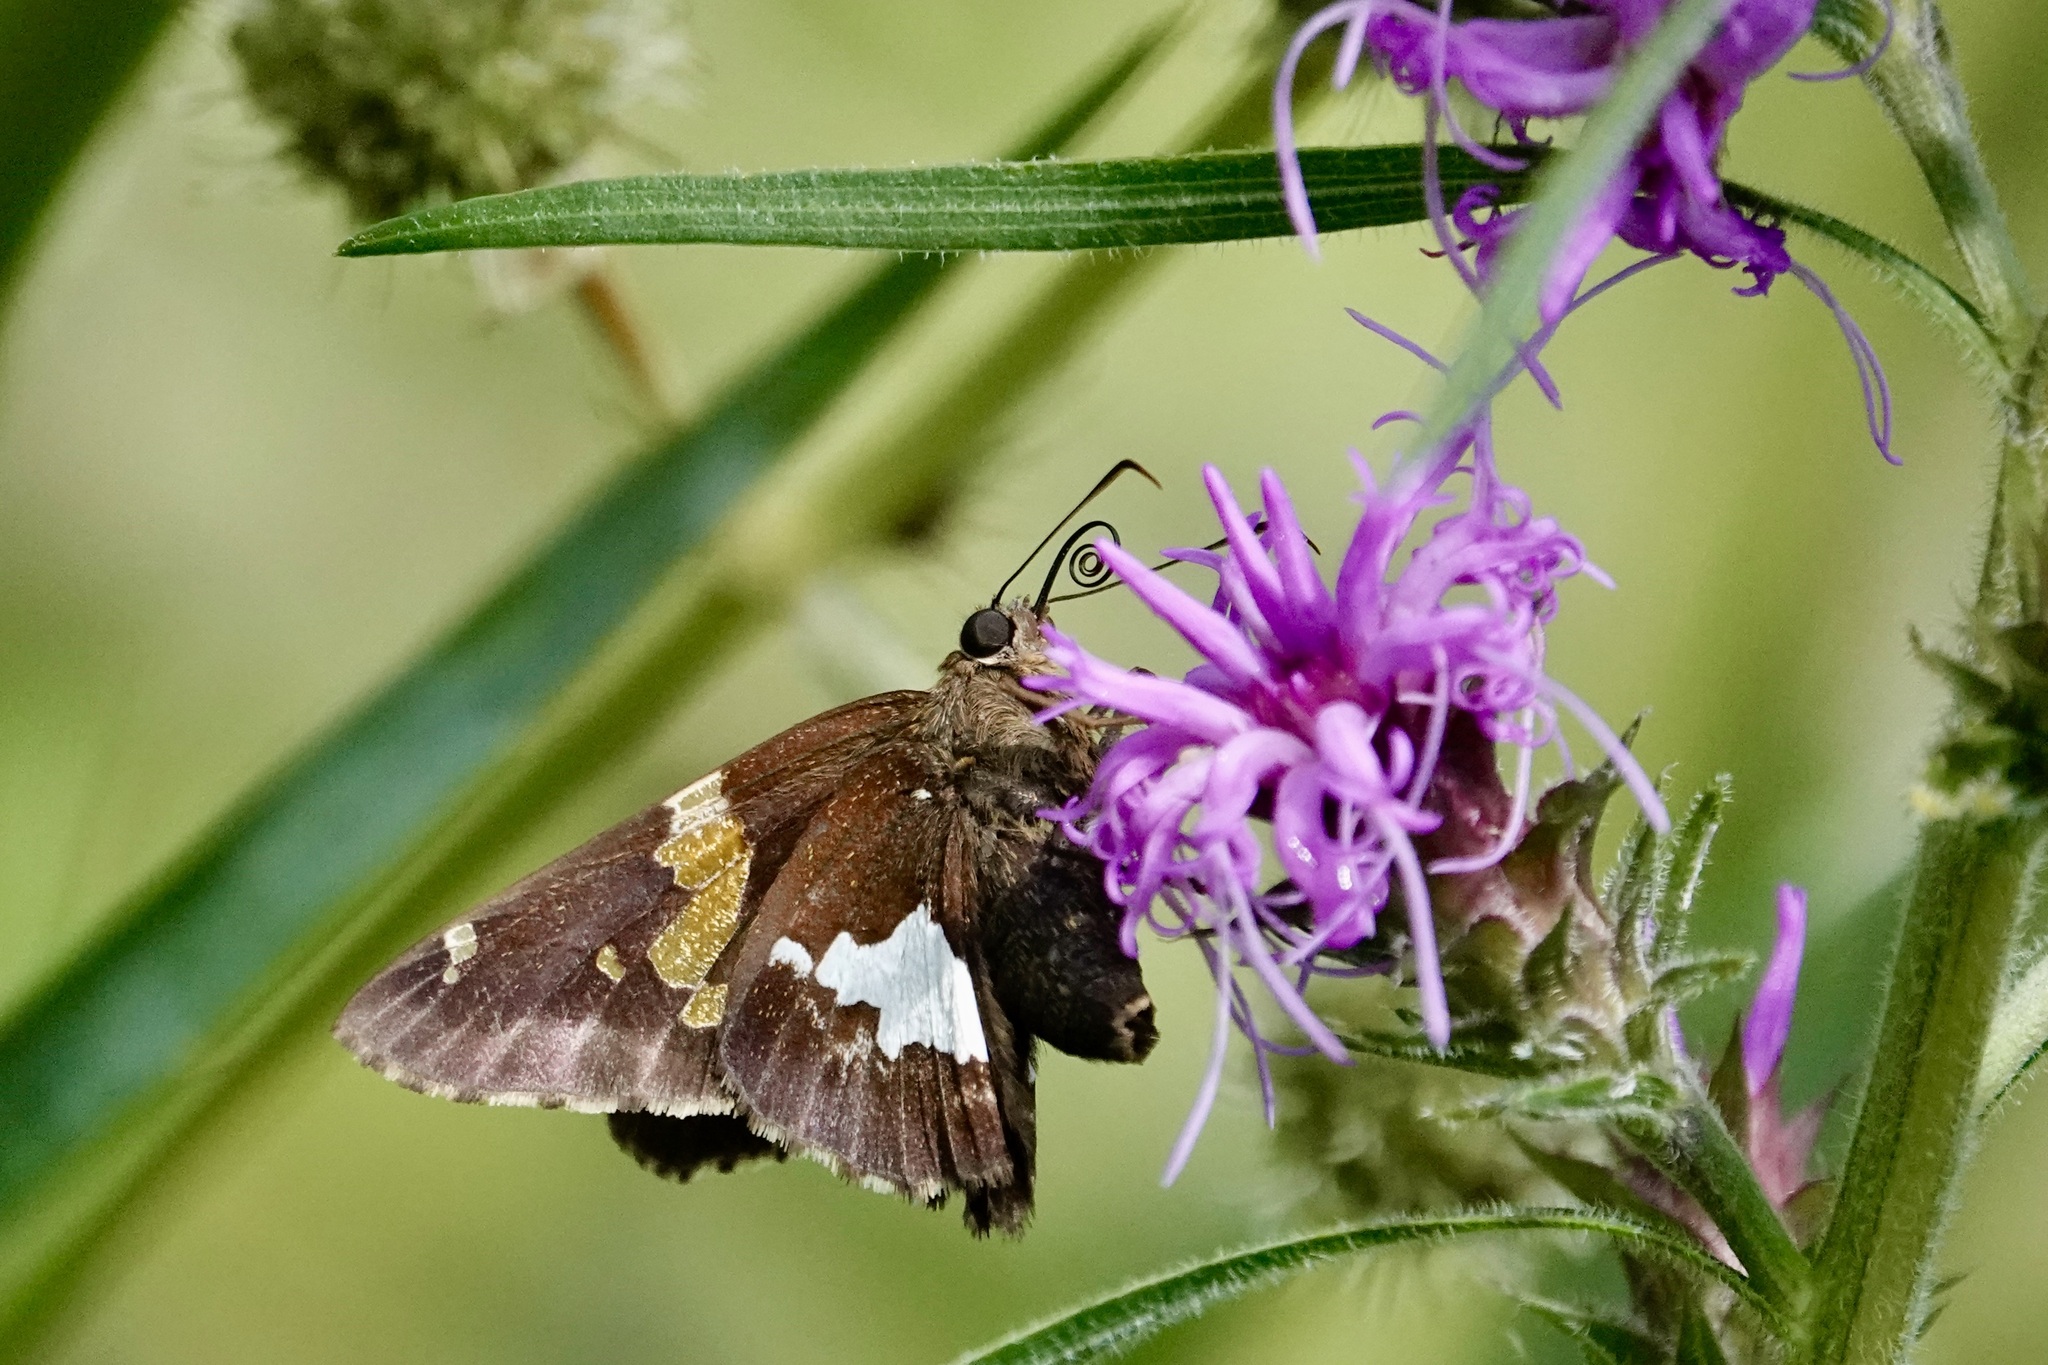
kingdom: Animalia
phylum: Arthropoda
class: Insecta
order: Lepidoptera
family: Hesperiidae
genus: Epargyreus
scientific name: Epargyreus clarus
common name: Silver-spotted skipper
